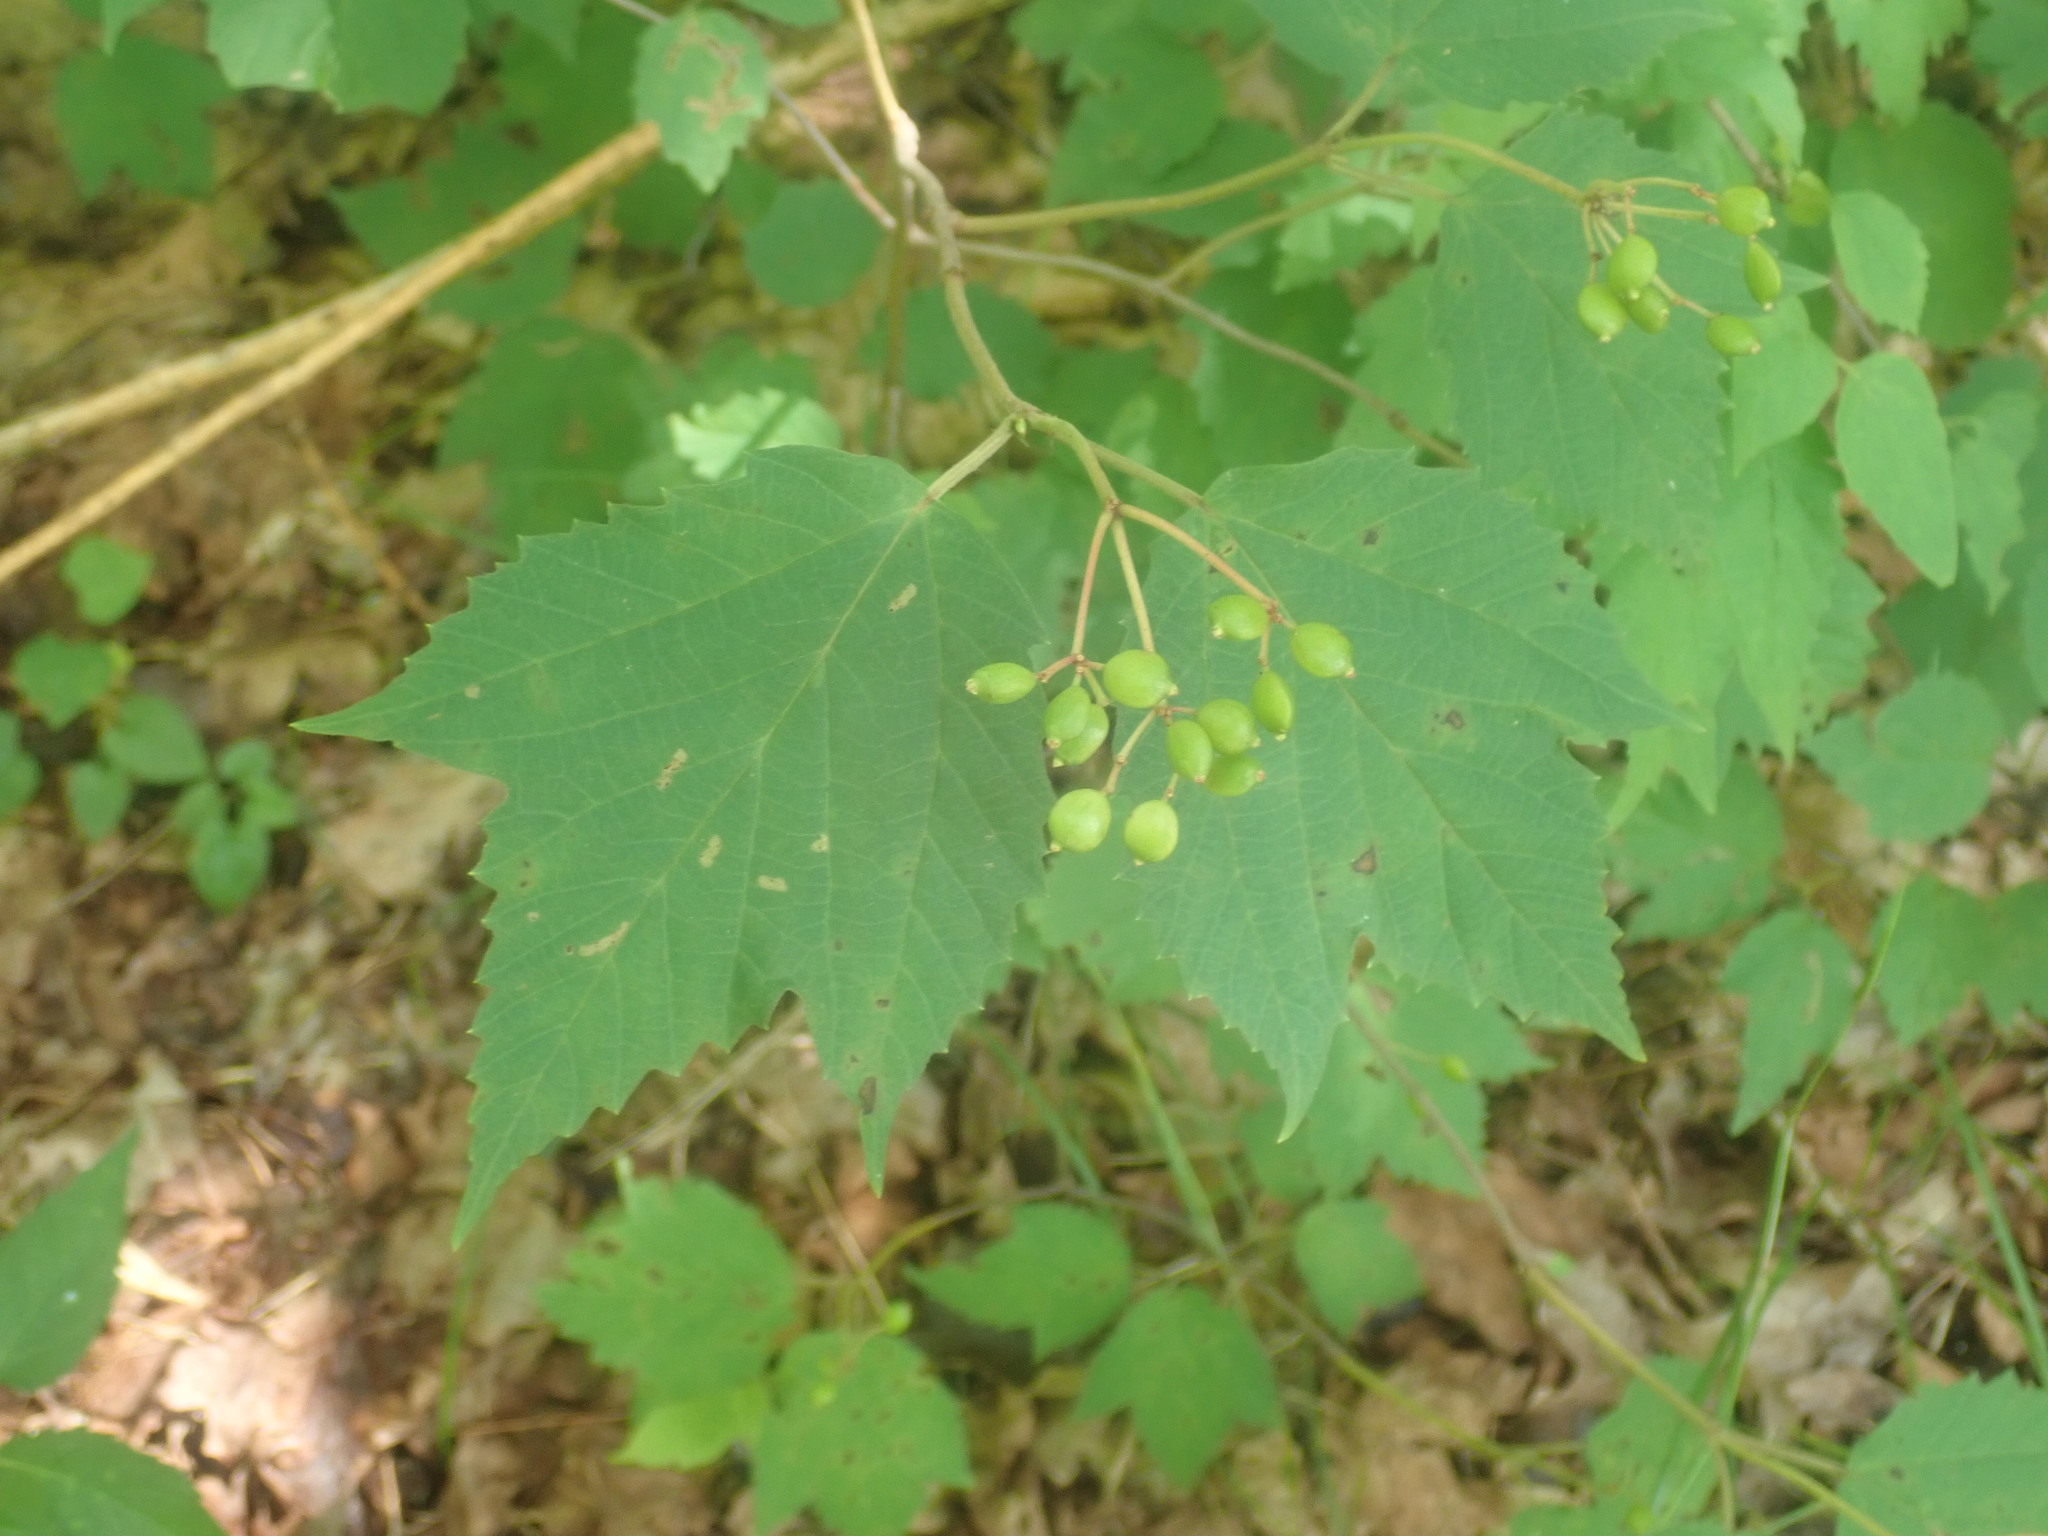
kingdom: Plantae
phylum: Tracheophyta
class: Magnoliopsida
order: Dipsacales
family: Viburnaceae
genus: Viburnum
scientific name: Viburnum acerifolium
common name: Dockmackie
